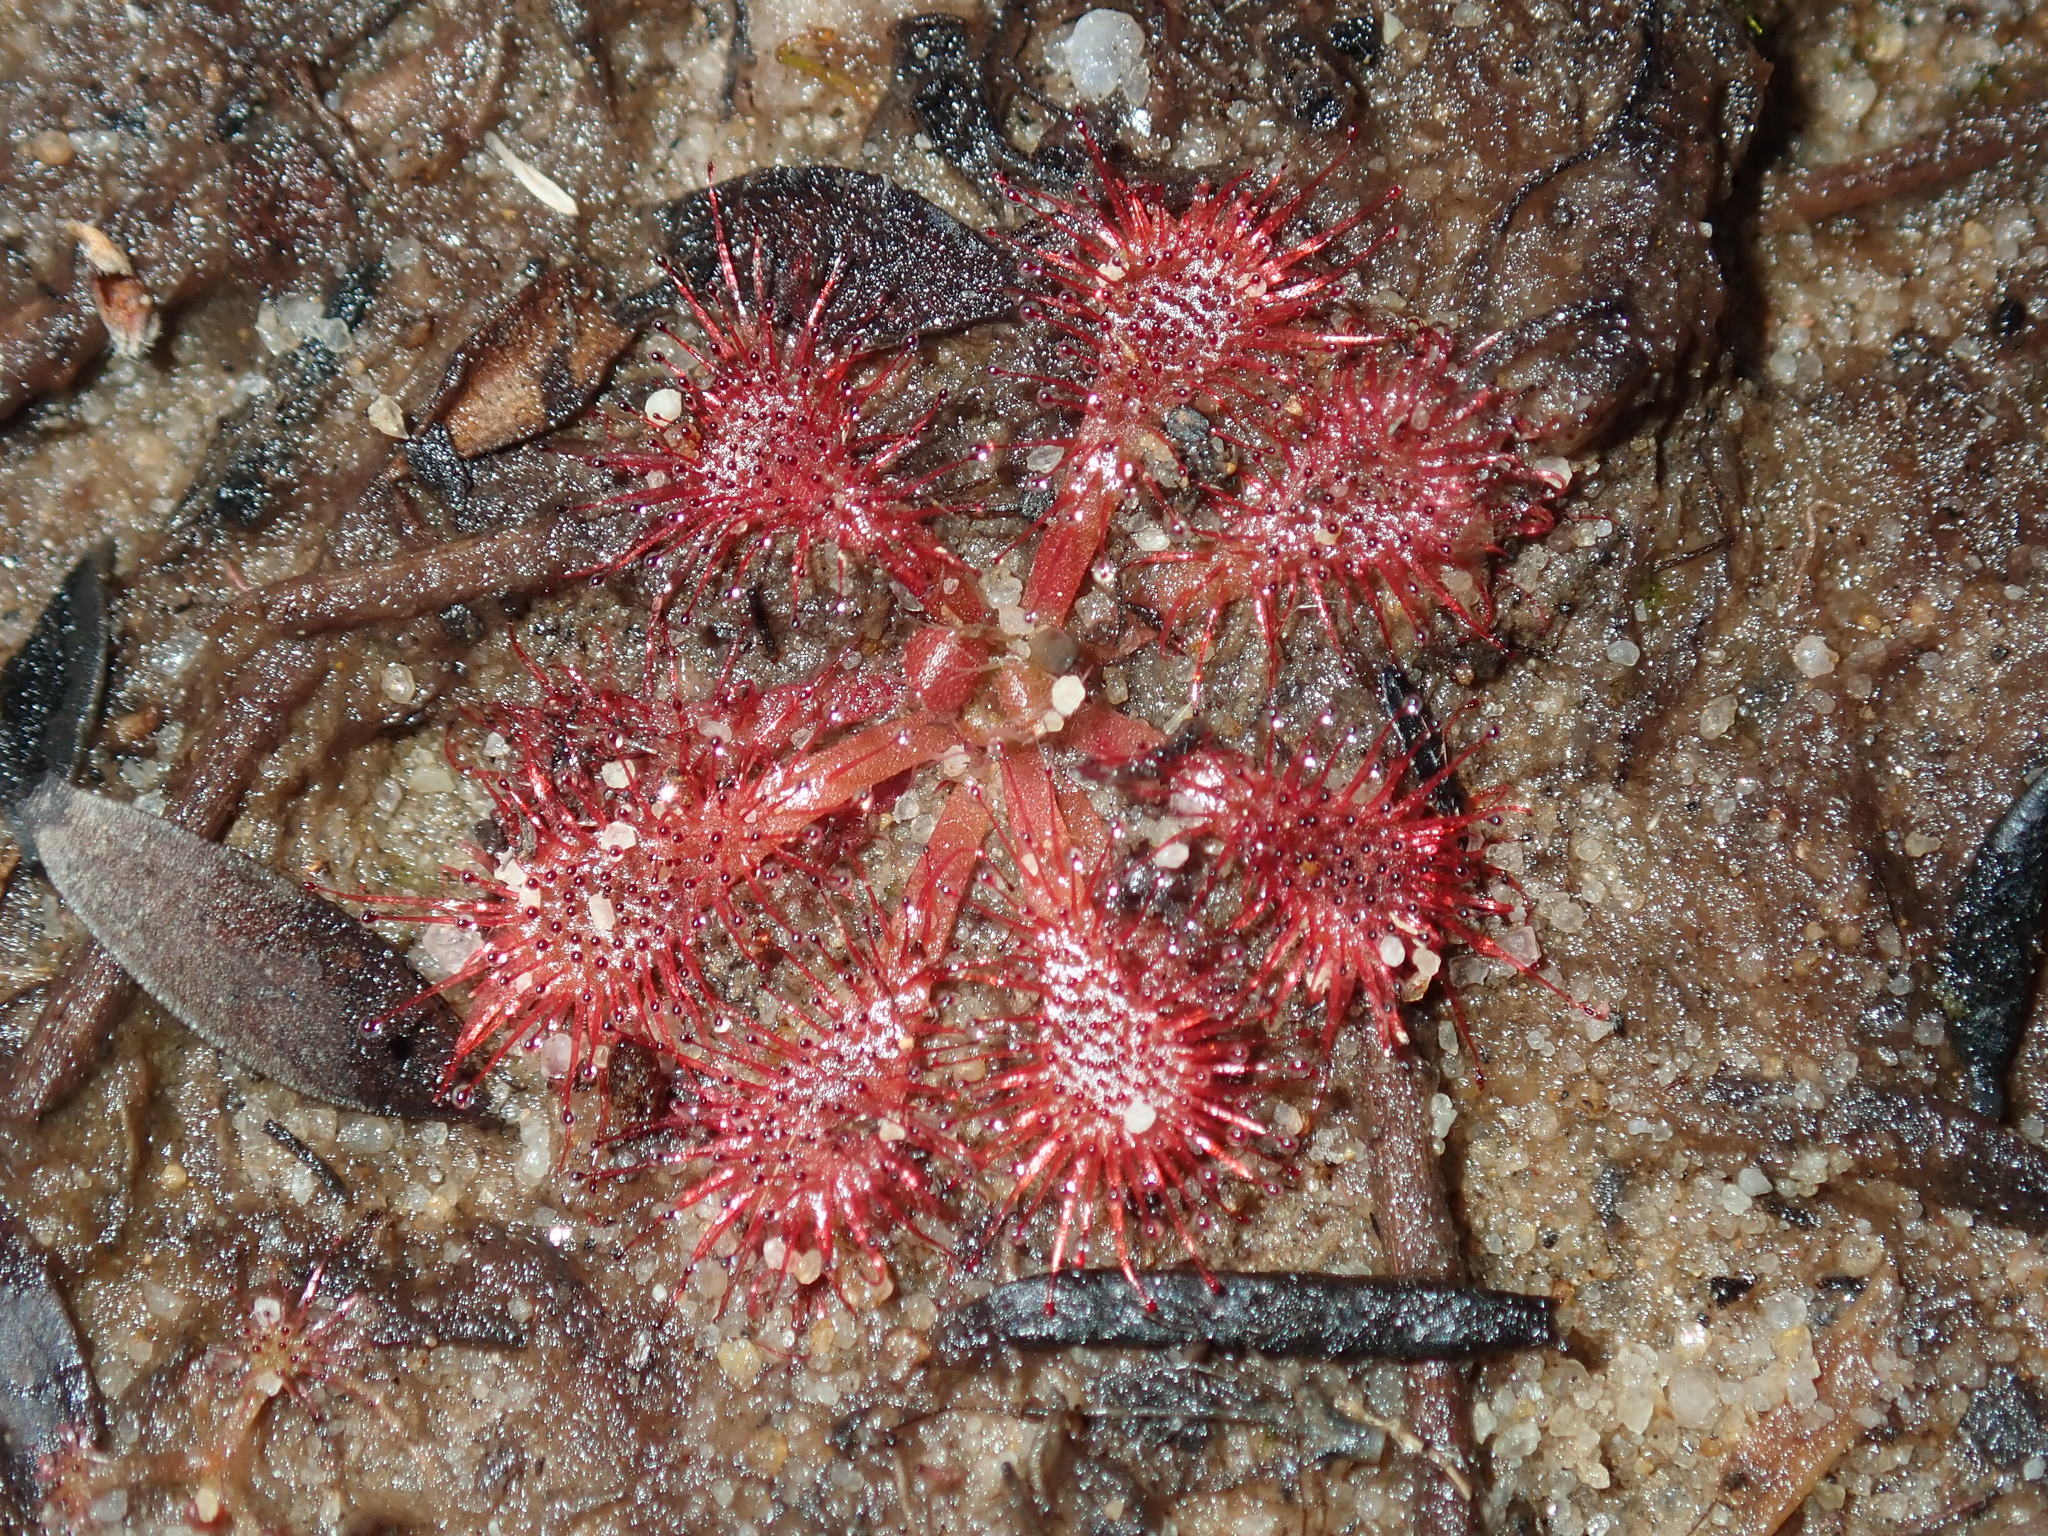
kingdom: Plantae
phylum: Tracheophyta
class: Magnoliopsida
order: Caryophyllales
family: Droseraceae
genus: Drosera
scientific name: Drosera spatulata
